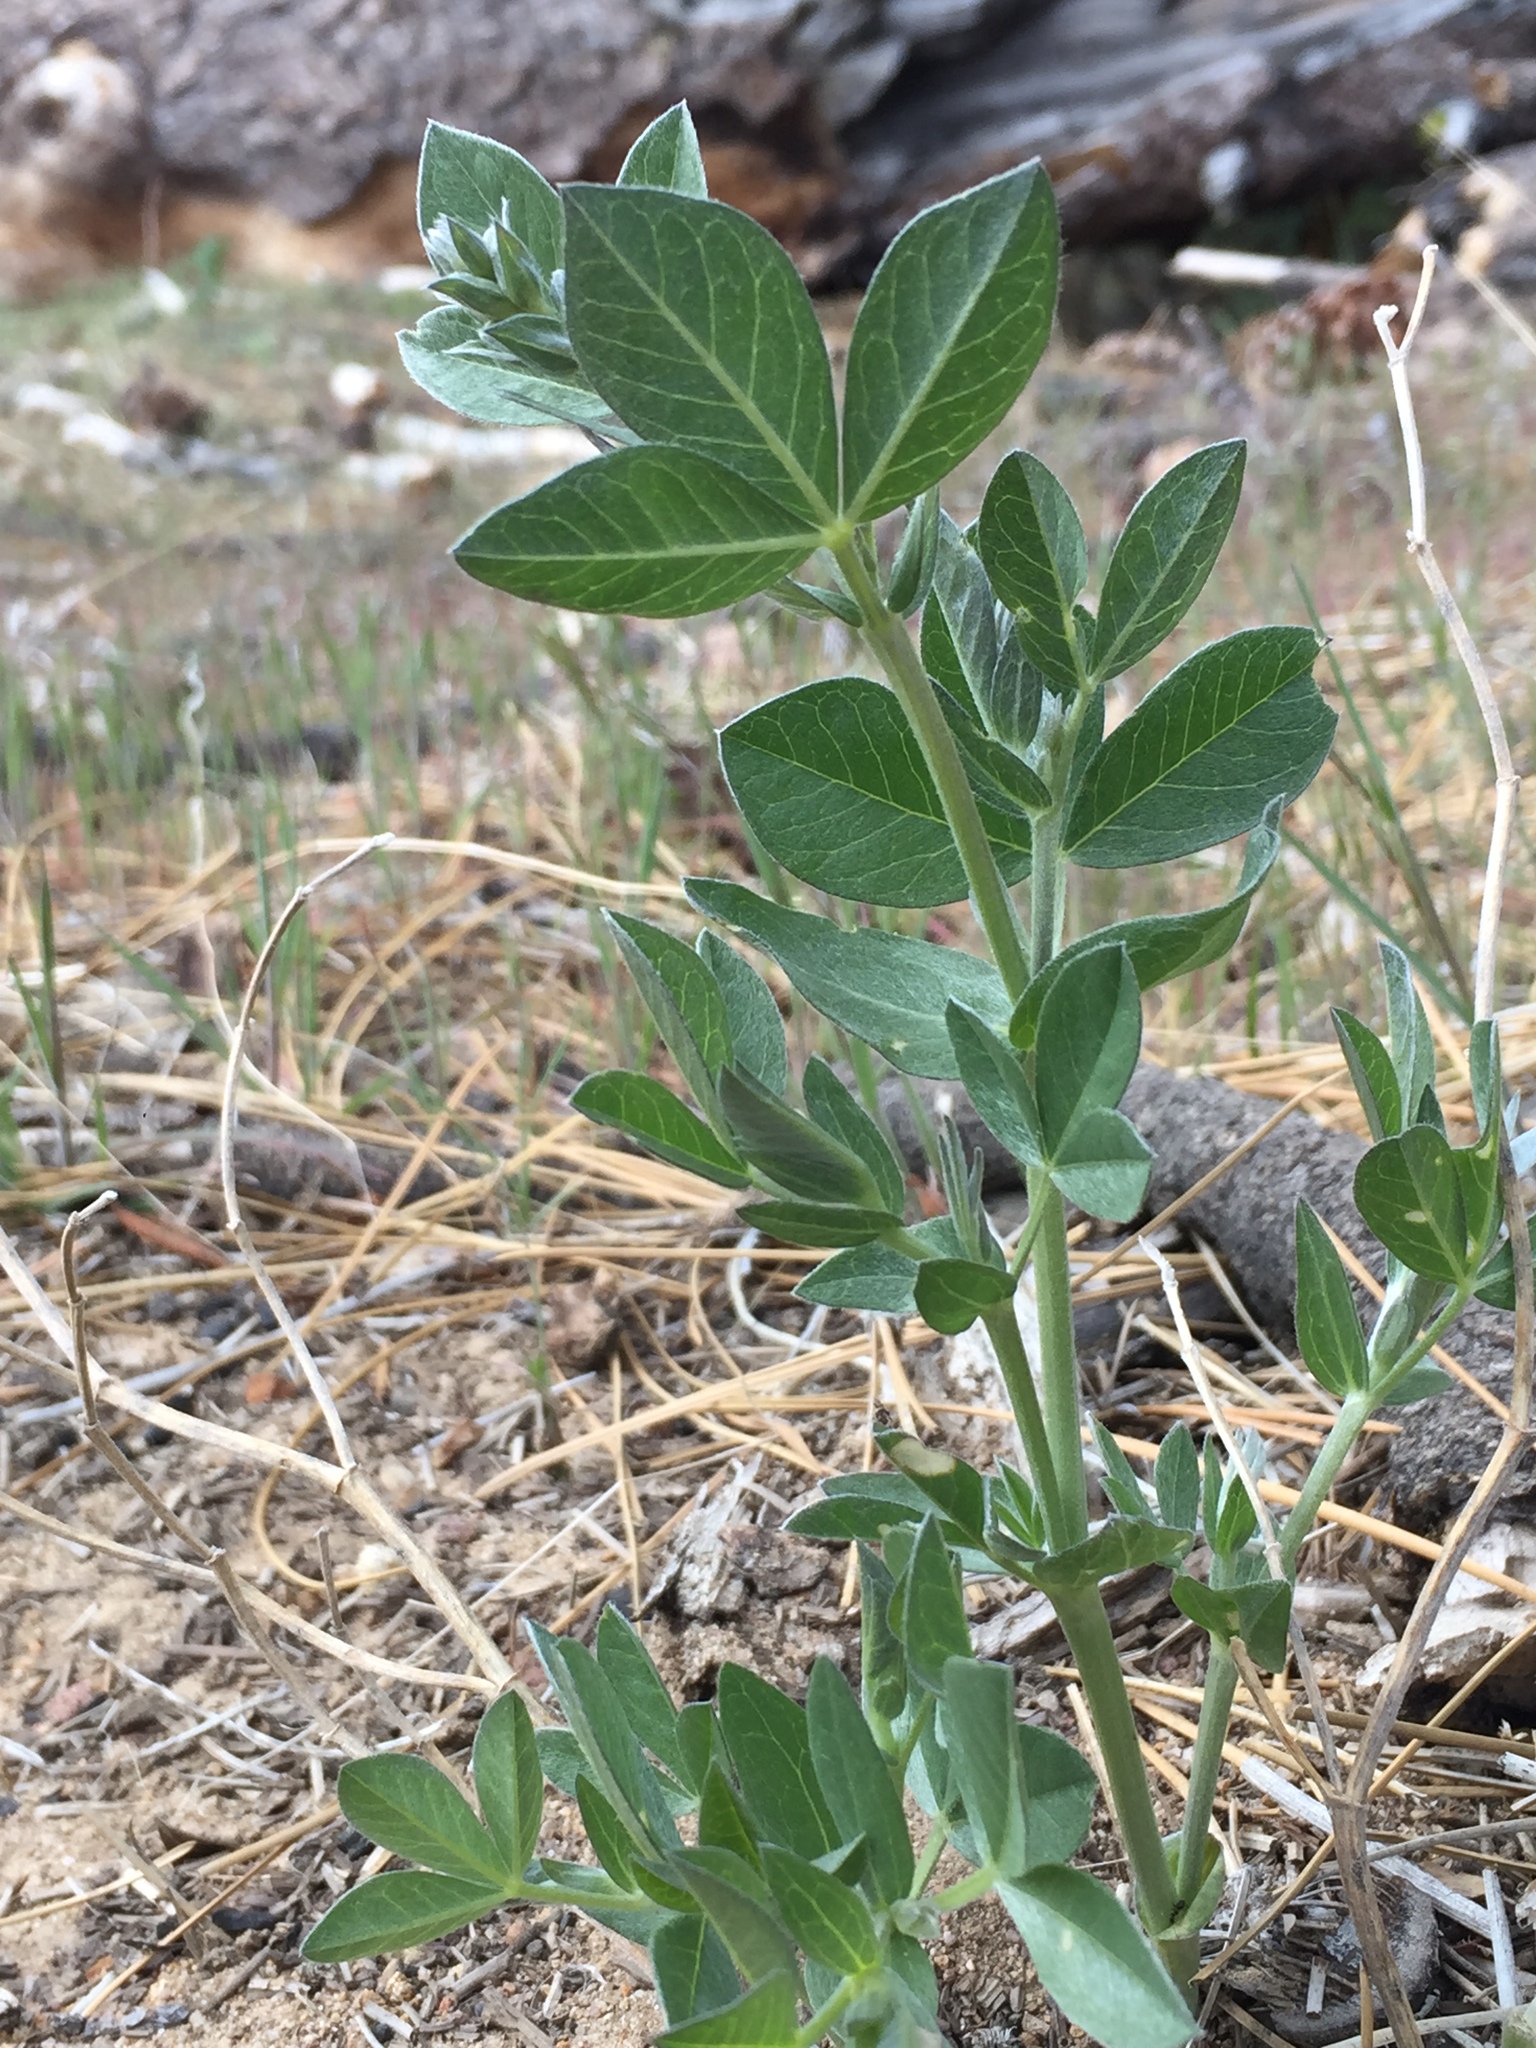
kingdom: Plantae
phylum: Tracheophyta
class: Magnoliopsida
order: Fabales
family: Fabaceae
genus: Thermopsis
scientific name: Thermopsis californica
